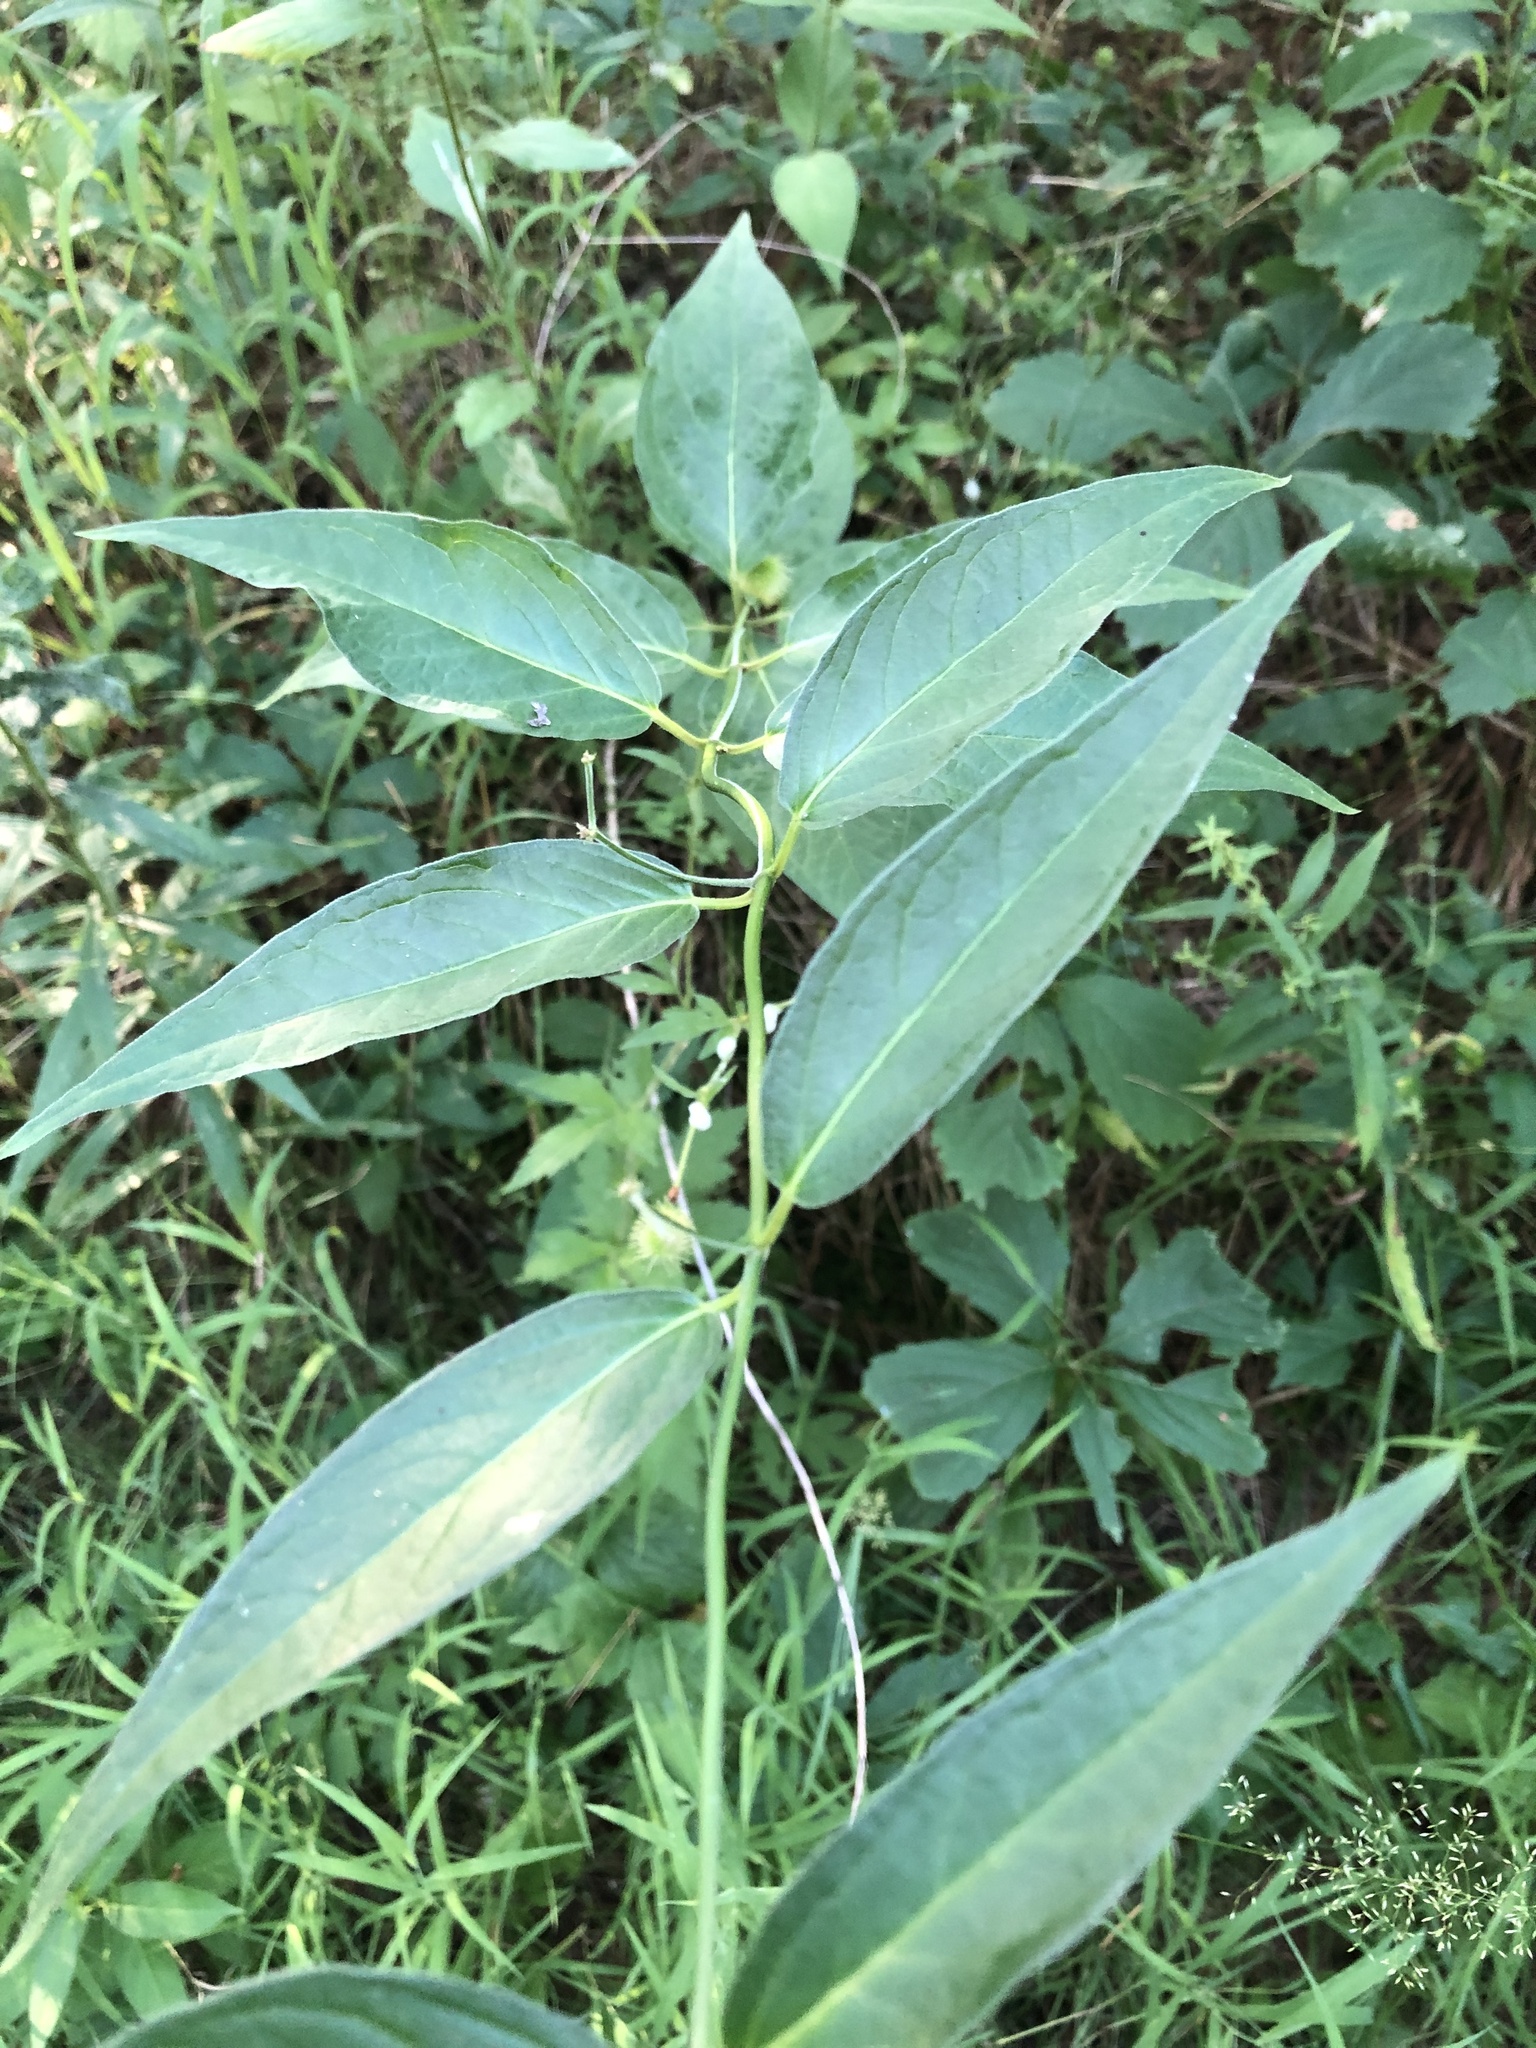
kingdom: Plantae
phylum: Tracheophyta
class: Magnoliopsida
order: Gentianales
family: Apocynaceae
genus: Vincetoxicum
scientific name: Vincetoxicum rossicum
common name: Dog-strangling vine
